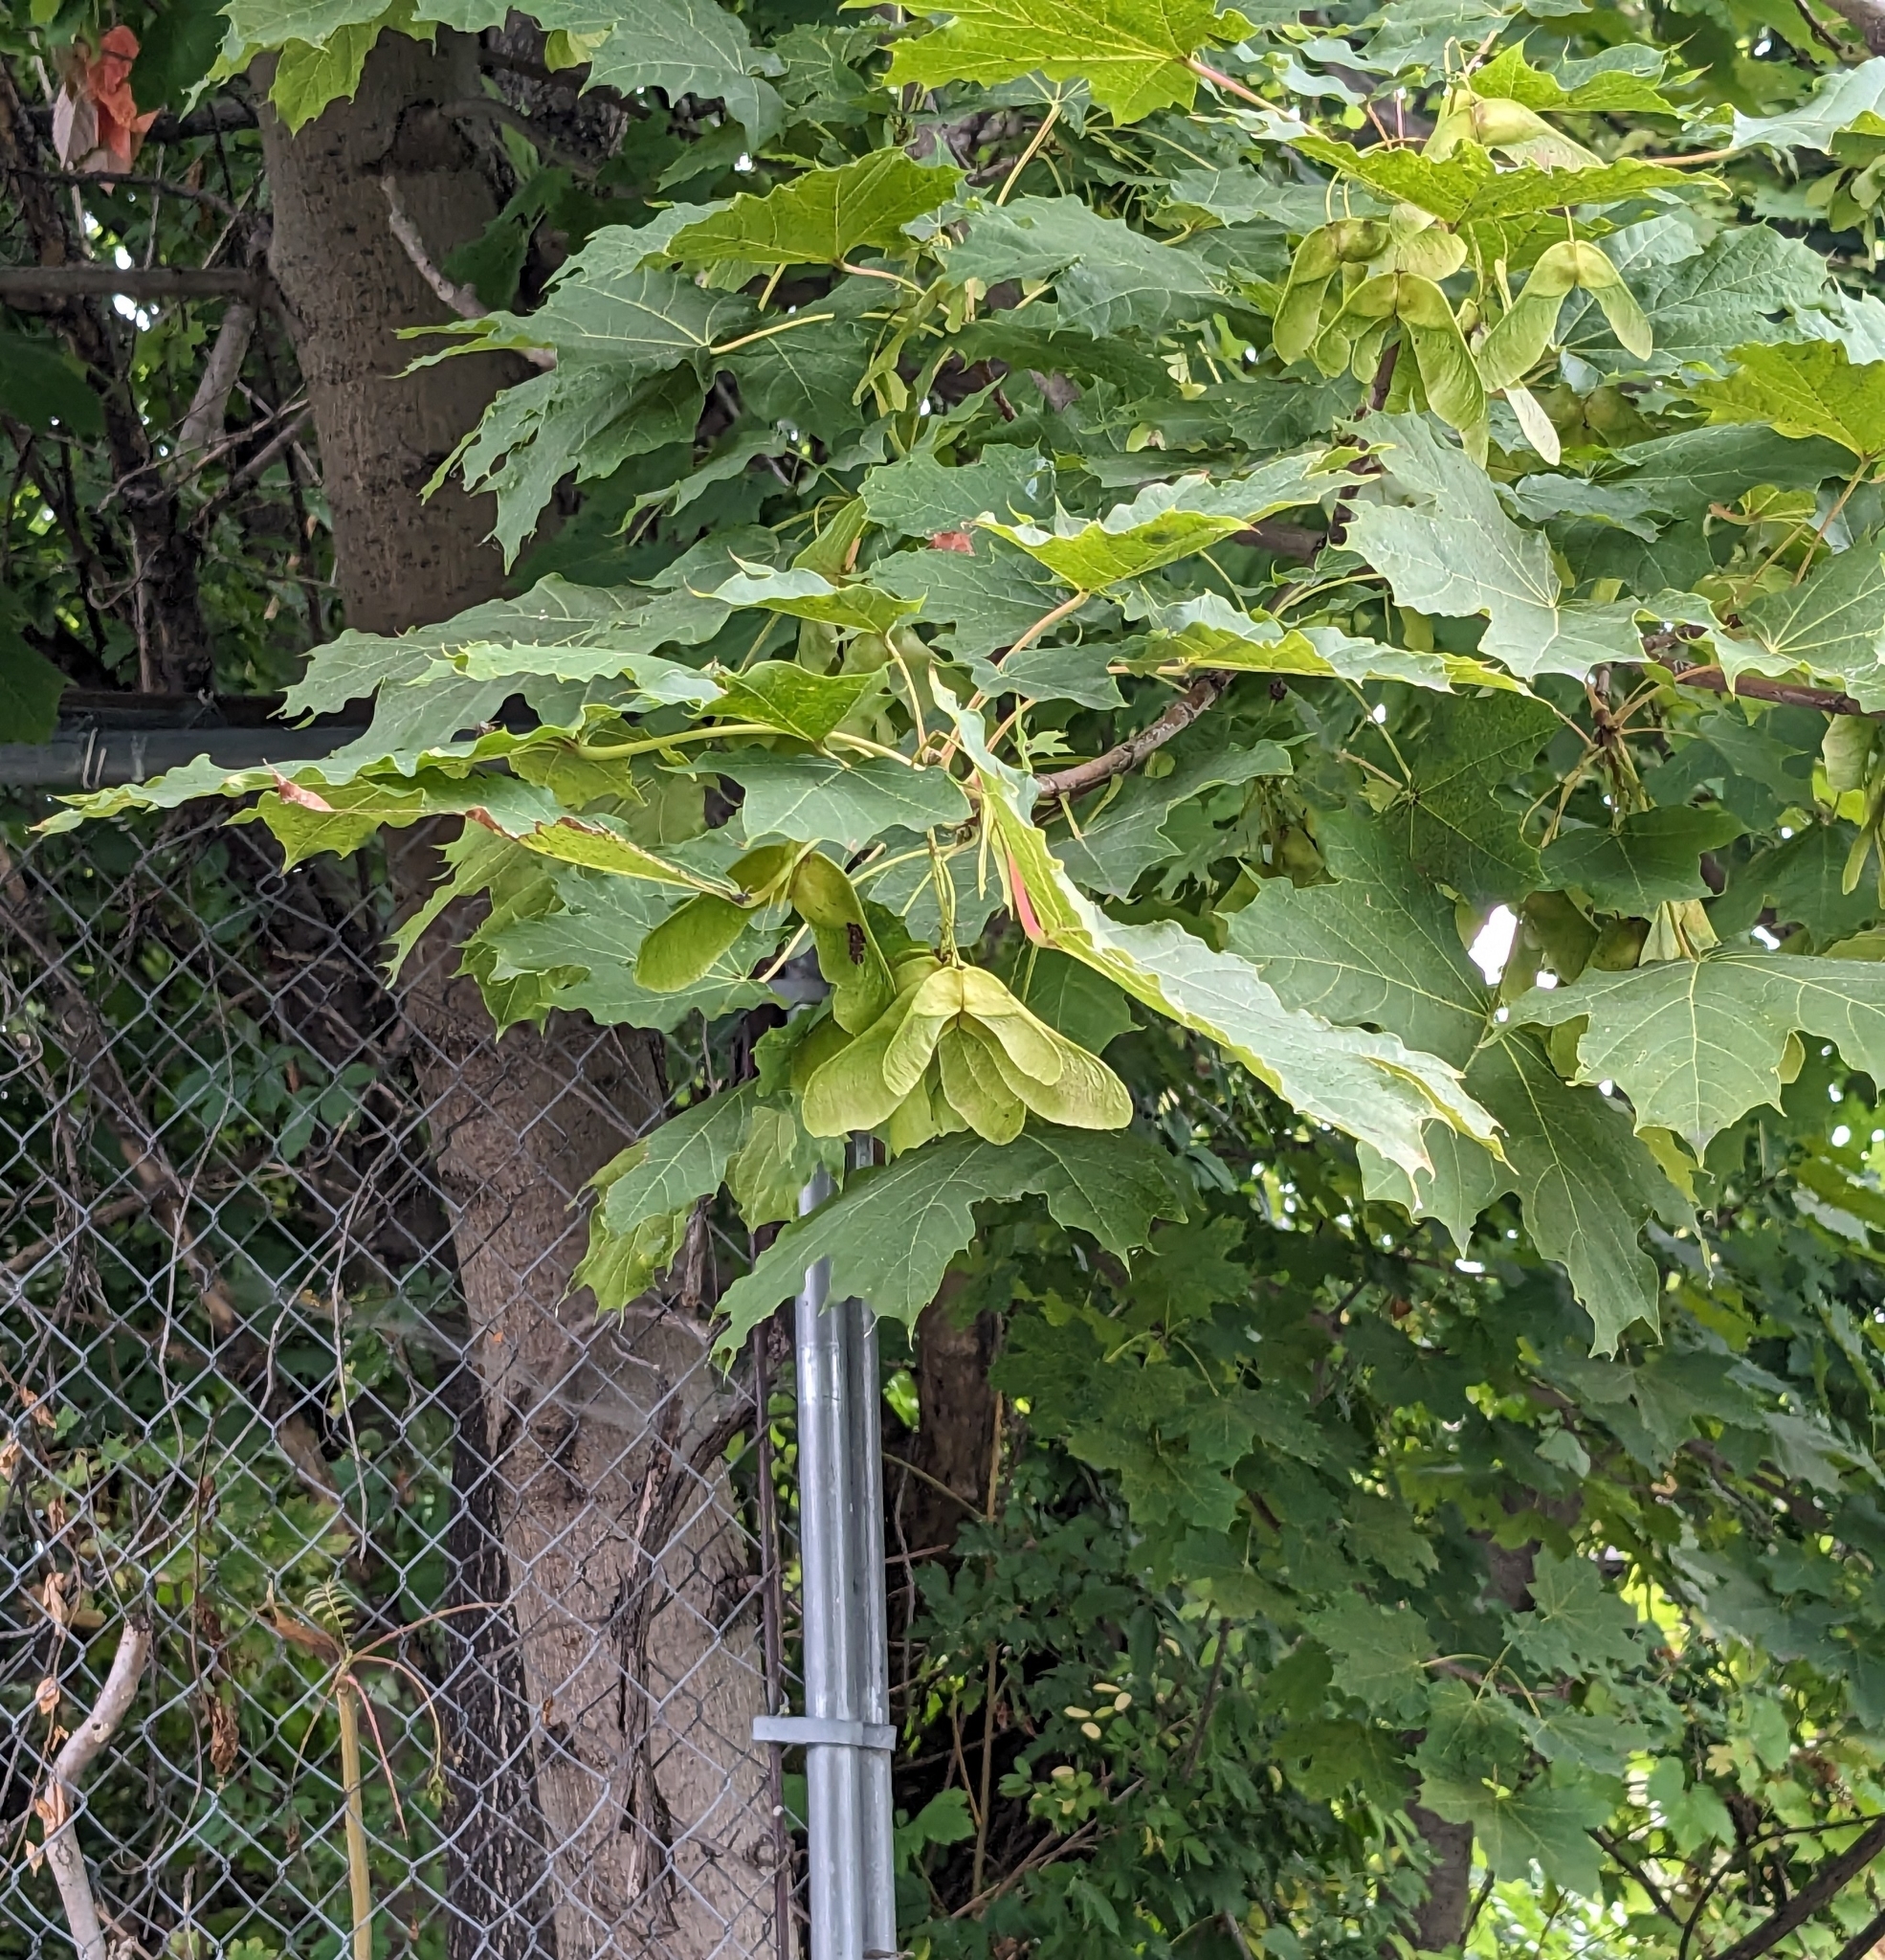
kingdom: Plantae
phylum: Tracheophyta
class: Magnoliopsida
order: Sapindales
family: Sapindaceae
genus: Acer
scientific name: Acer platanoides
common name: Norway maple
